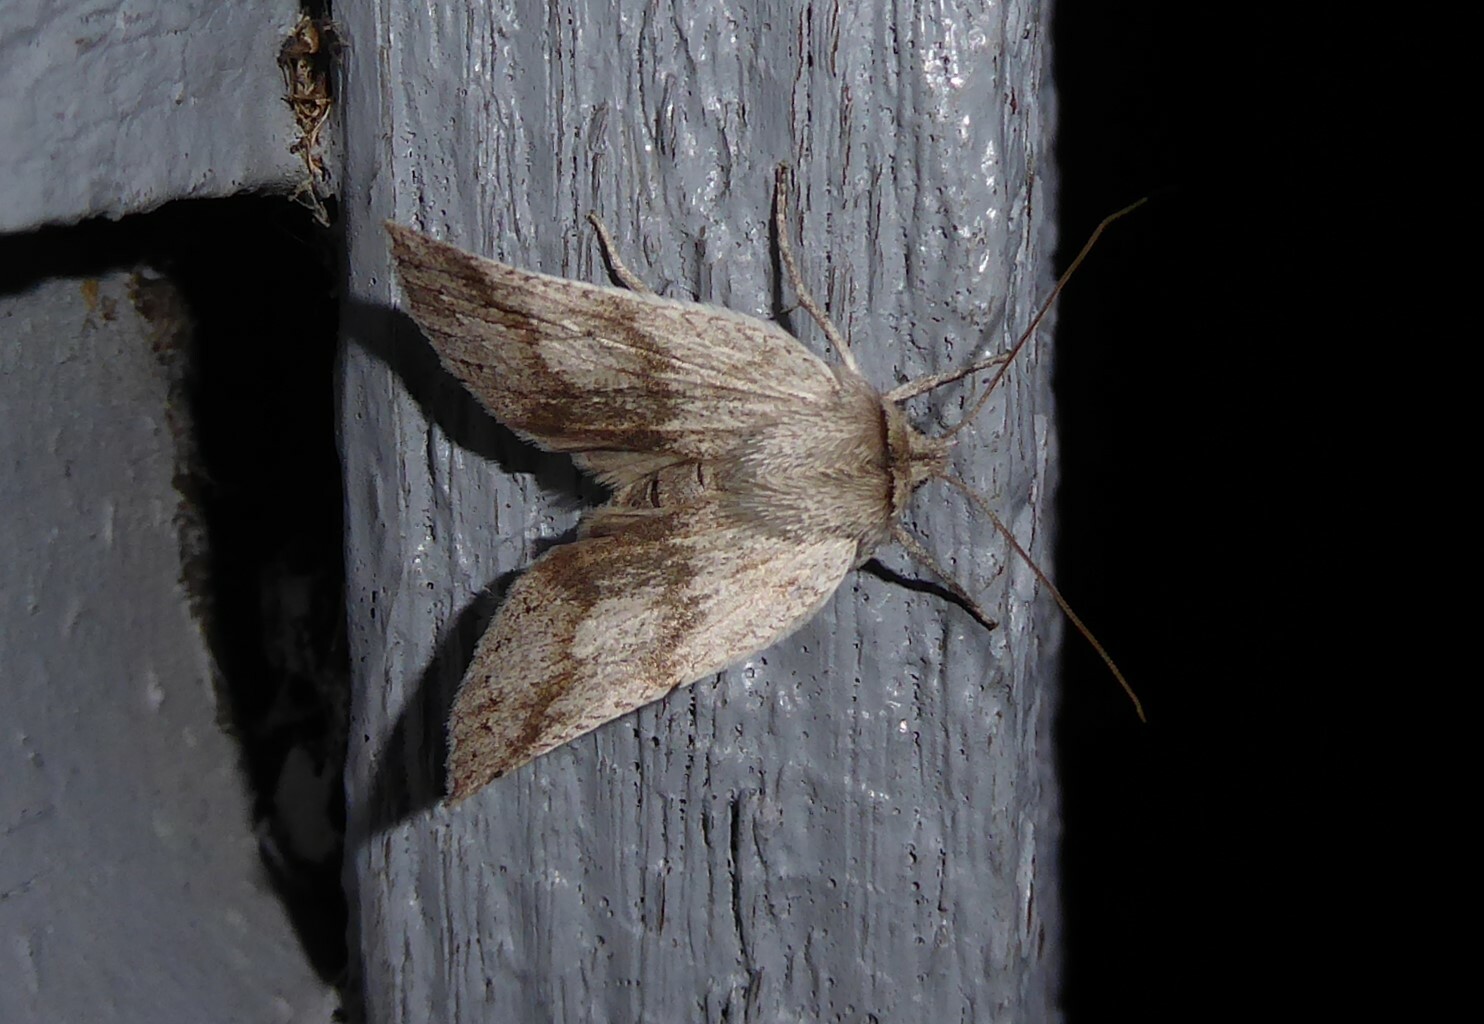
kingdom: Animalia
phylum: Arthropoda
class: Insecta
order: Lepidoptera
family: Geometridae
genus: Declana
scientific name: Declana leptomera
